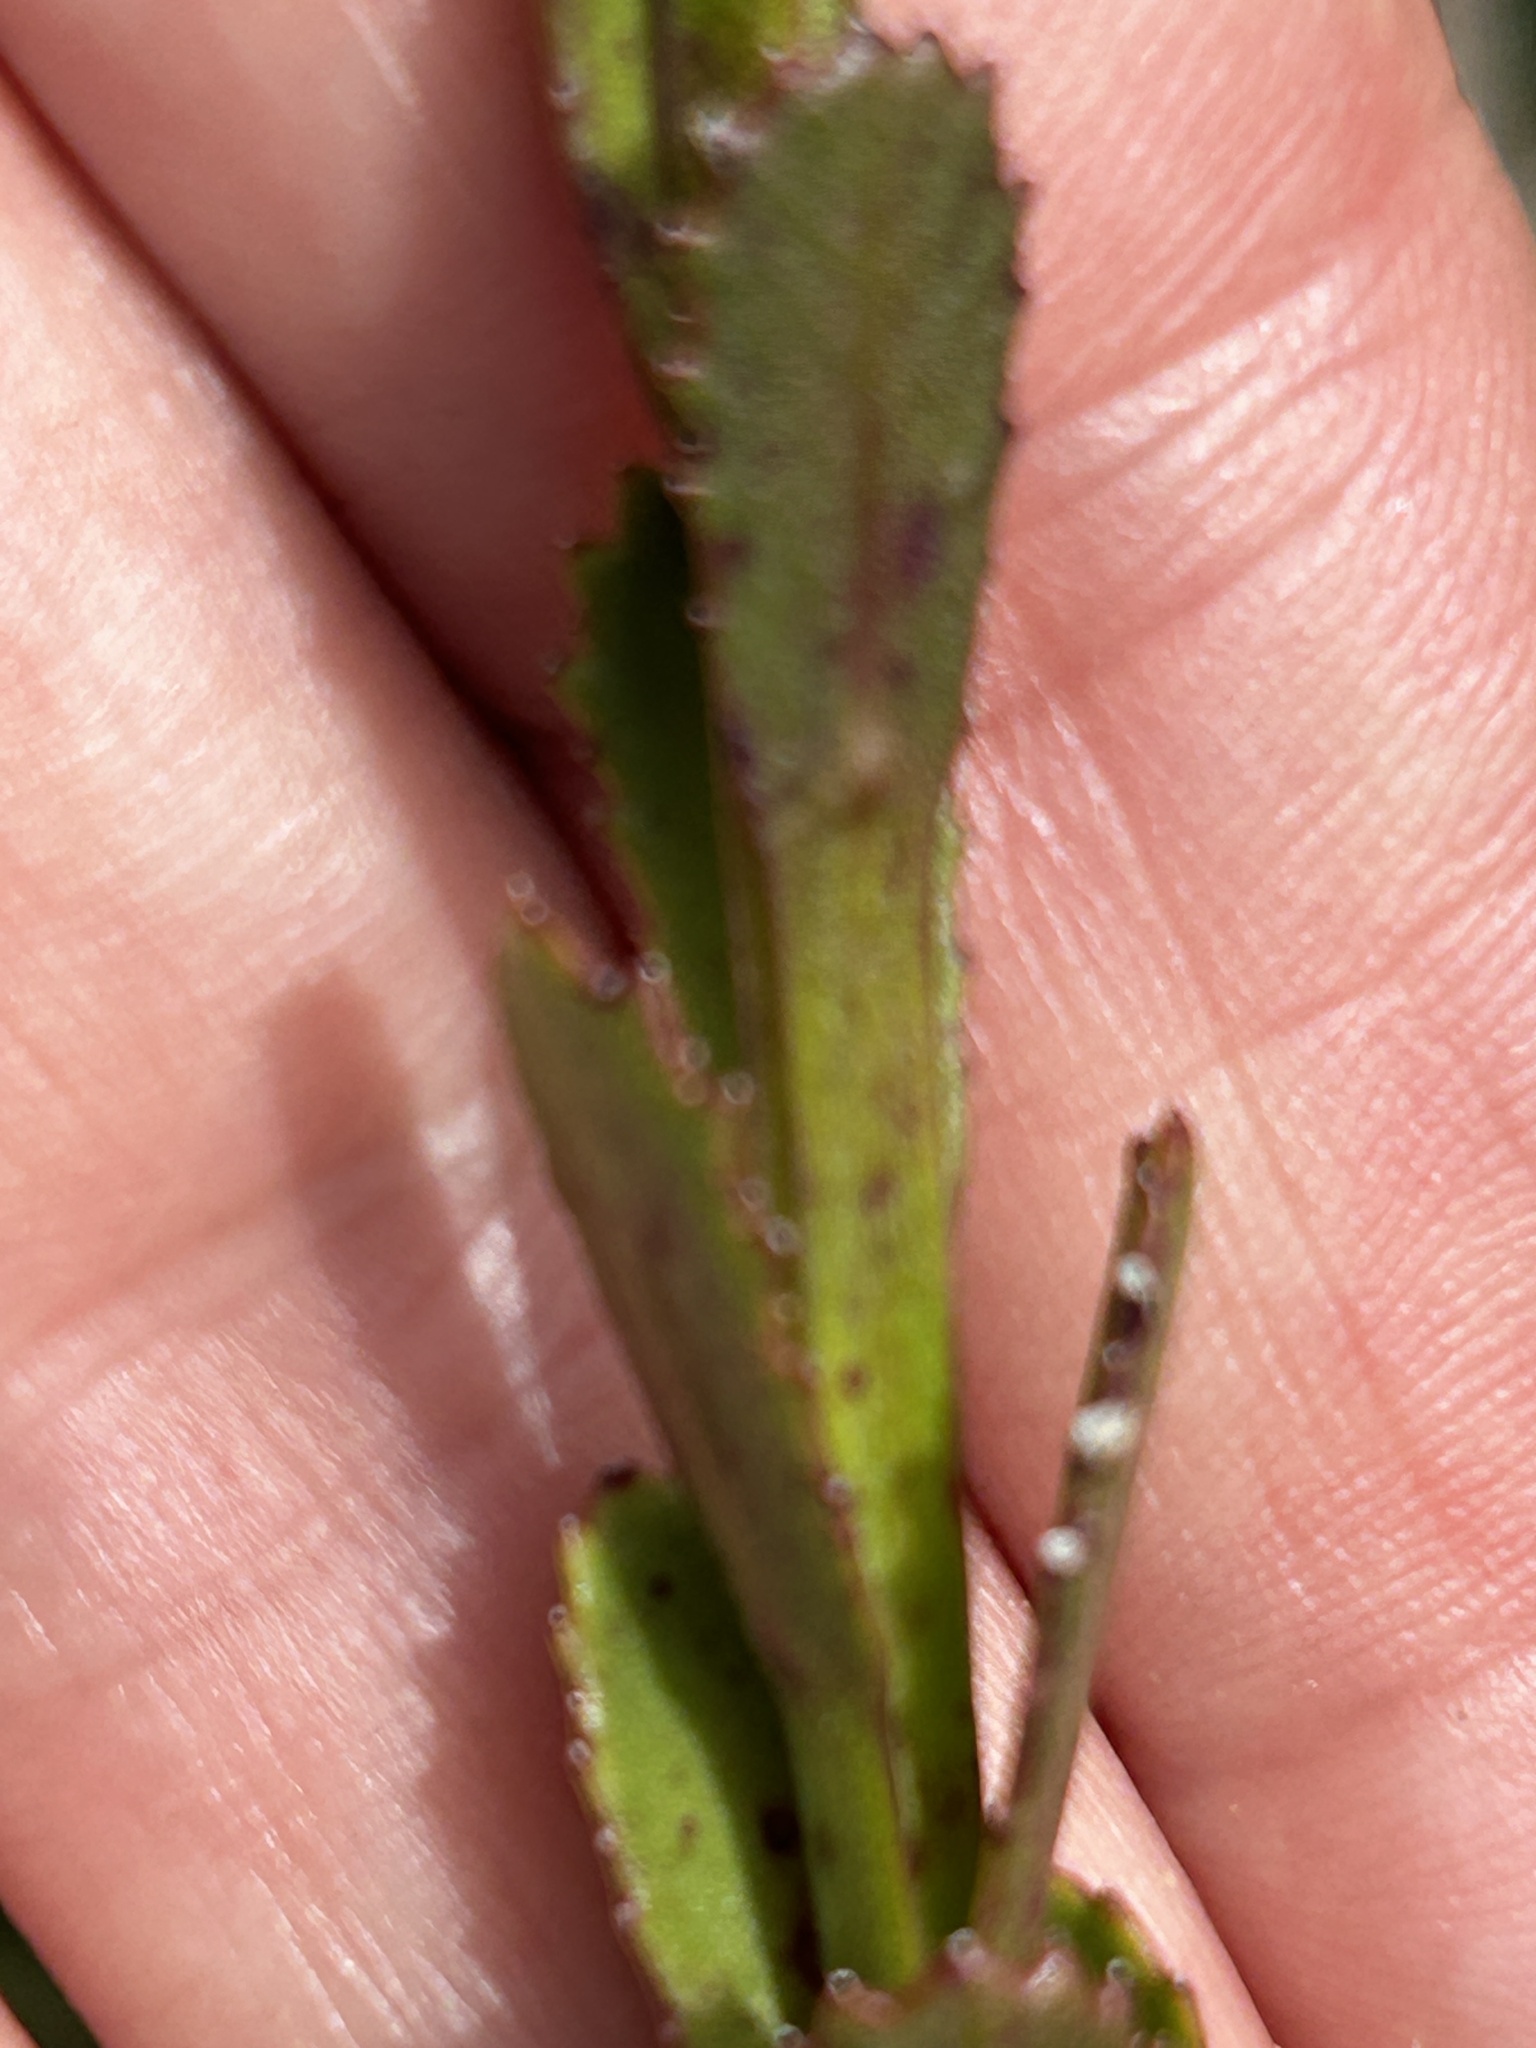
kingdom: Plantae
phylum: Tracheophyta
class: Magnoliopsida
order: Asterales
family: Campanulaceae
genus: Lobelia
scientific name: Lobelia valida
